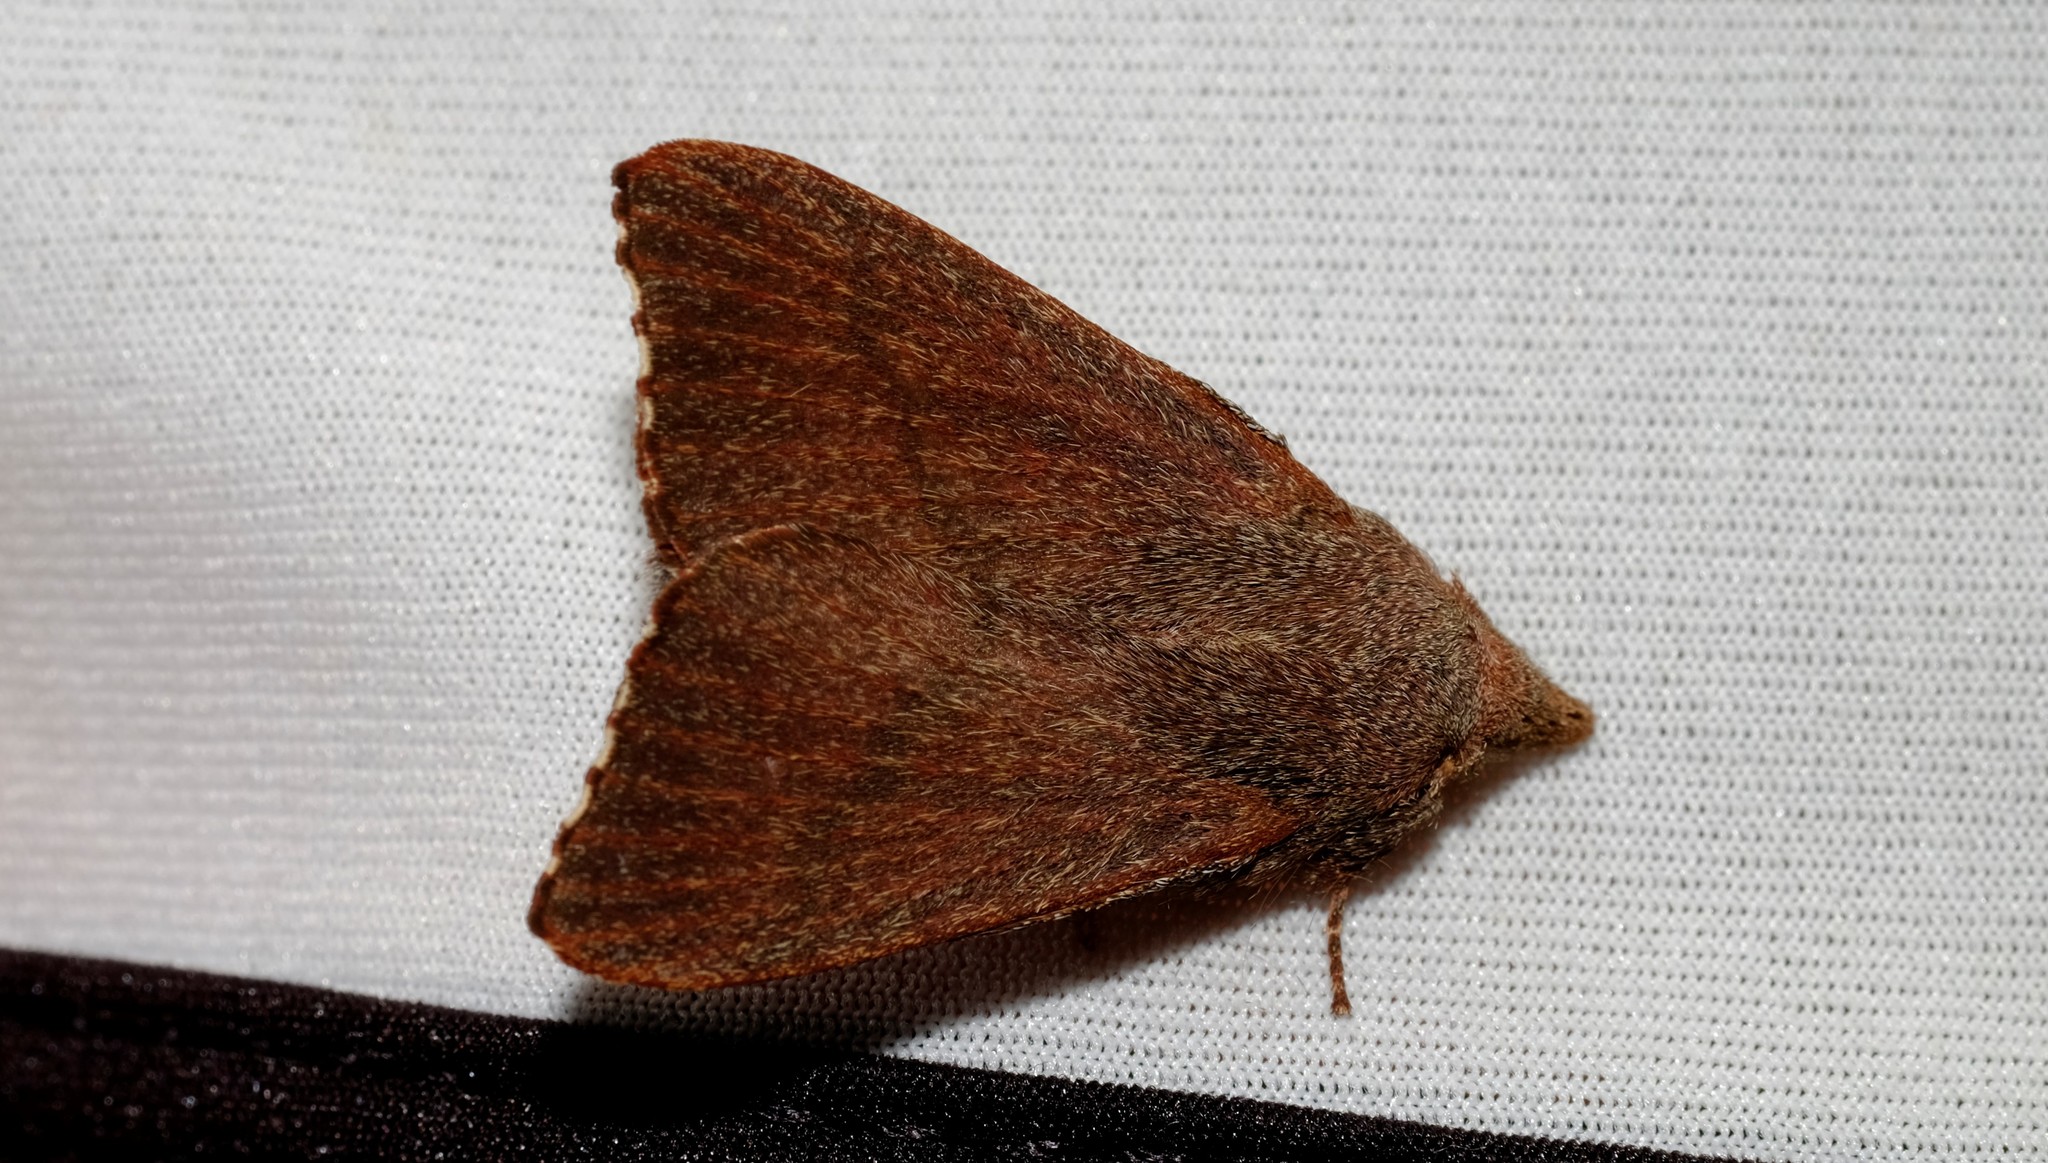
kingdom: Animalia
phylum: Arthropoda
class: Insecta
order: Lepidoptera
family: Lasiocampidae
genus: Pararguda
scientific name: Pararguda rufescens
